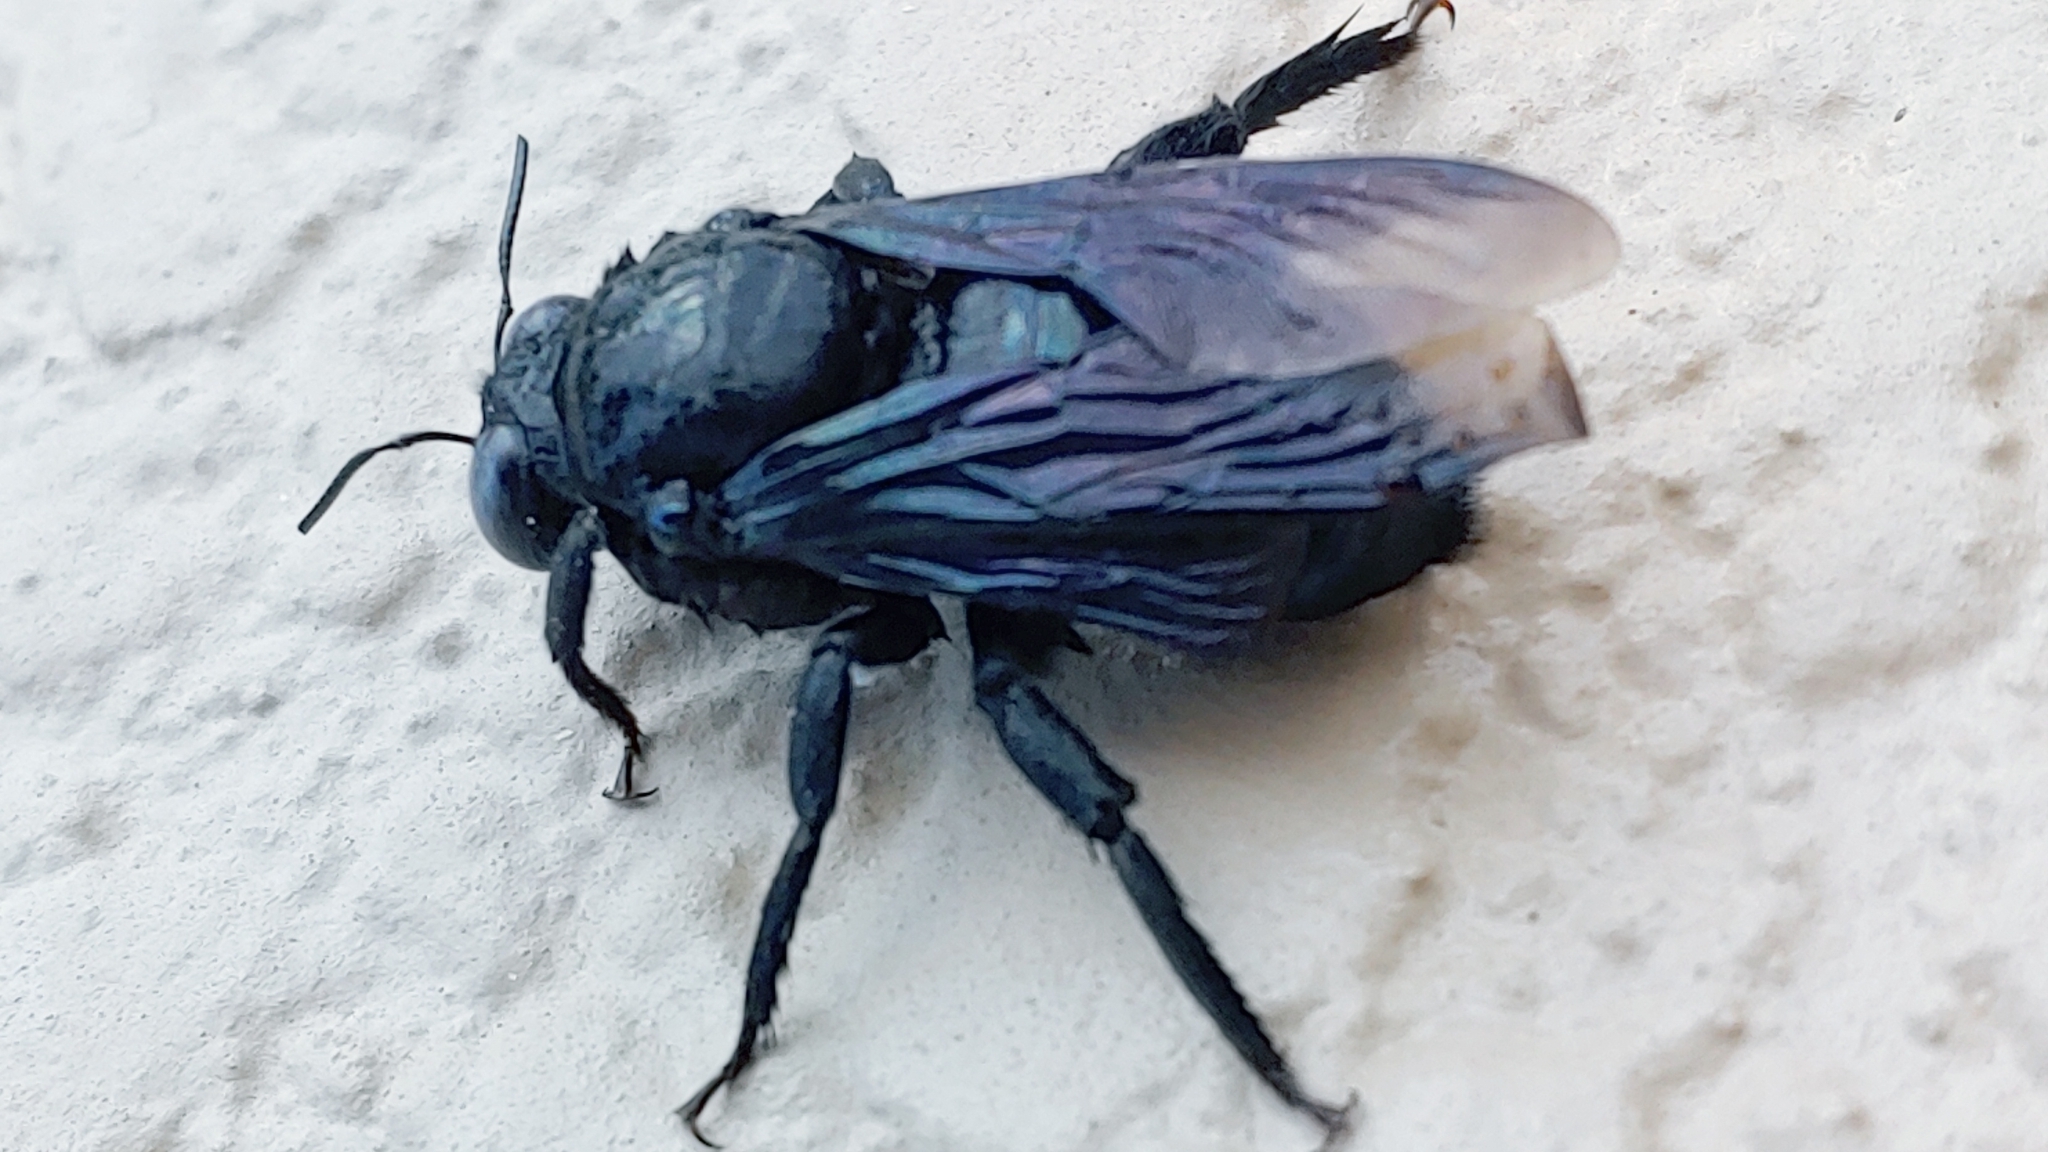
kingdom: Animalia
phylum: Arthropoda
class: Insecta
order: Hymenoptera
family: Apidae
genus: Xylocopa
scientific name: Xylocopa californica
